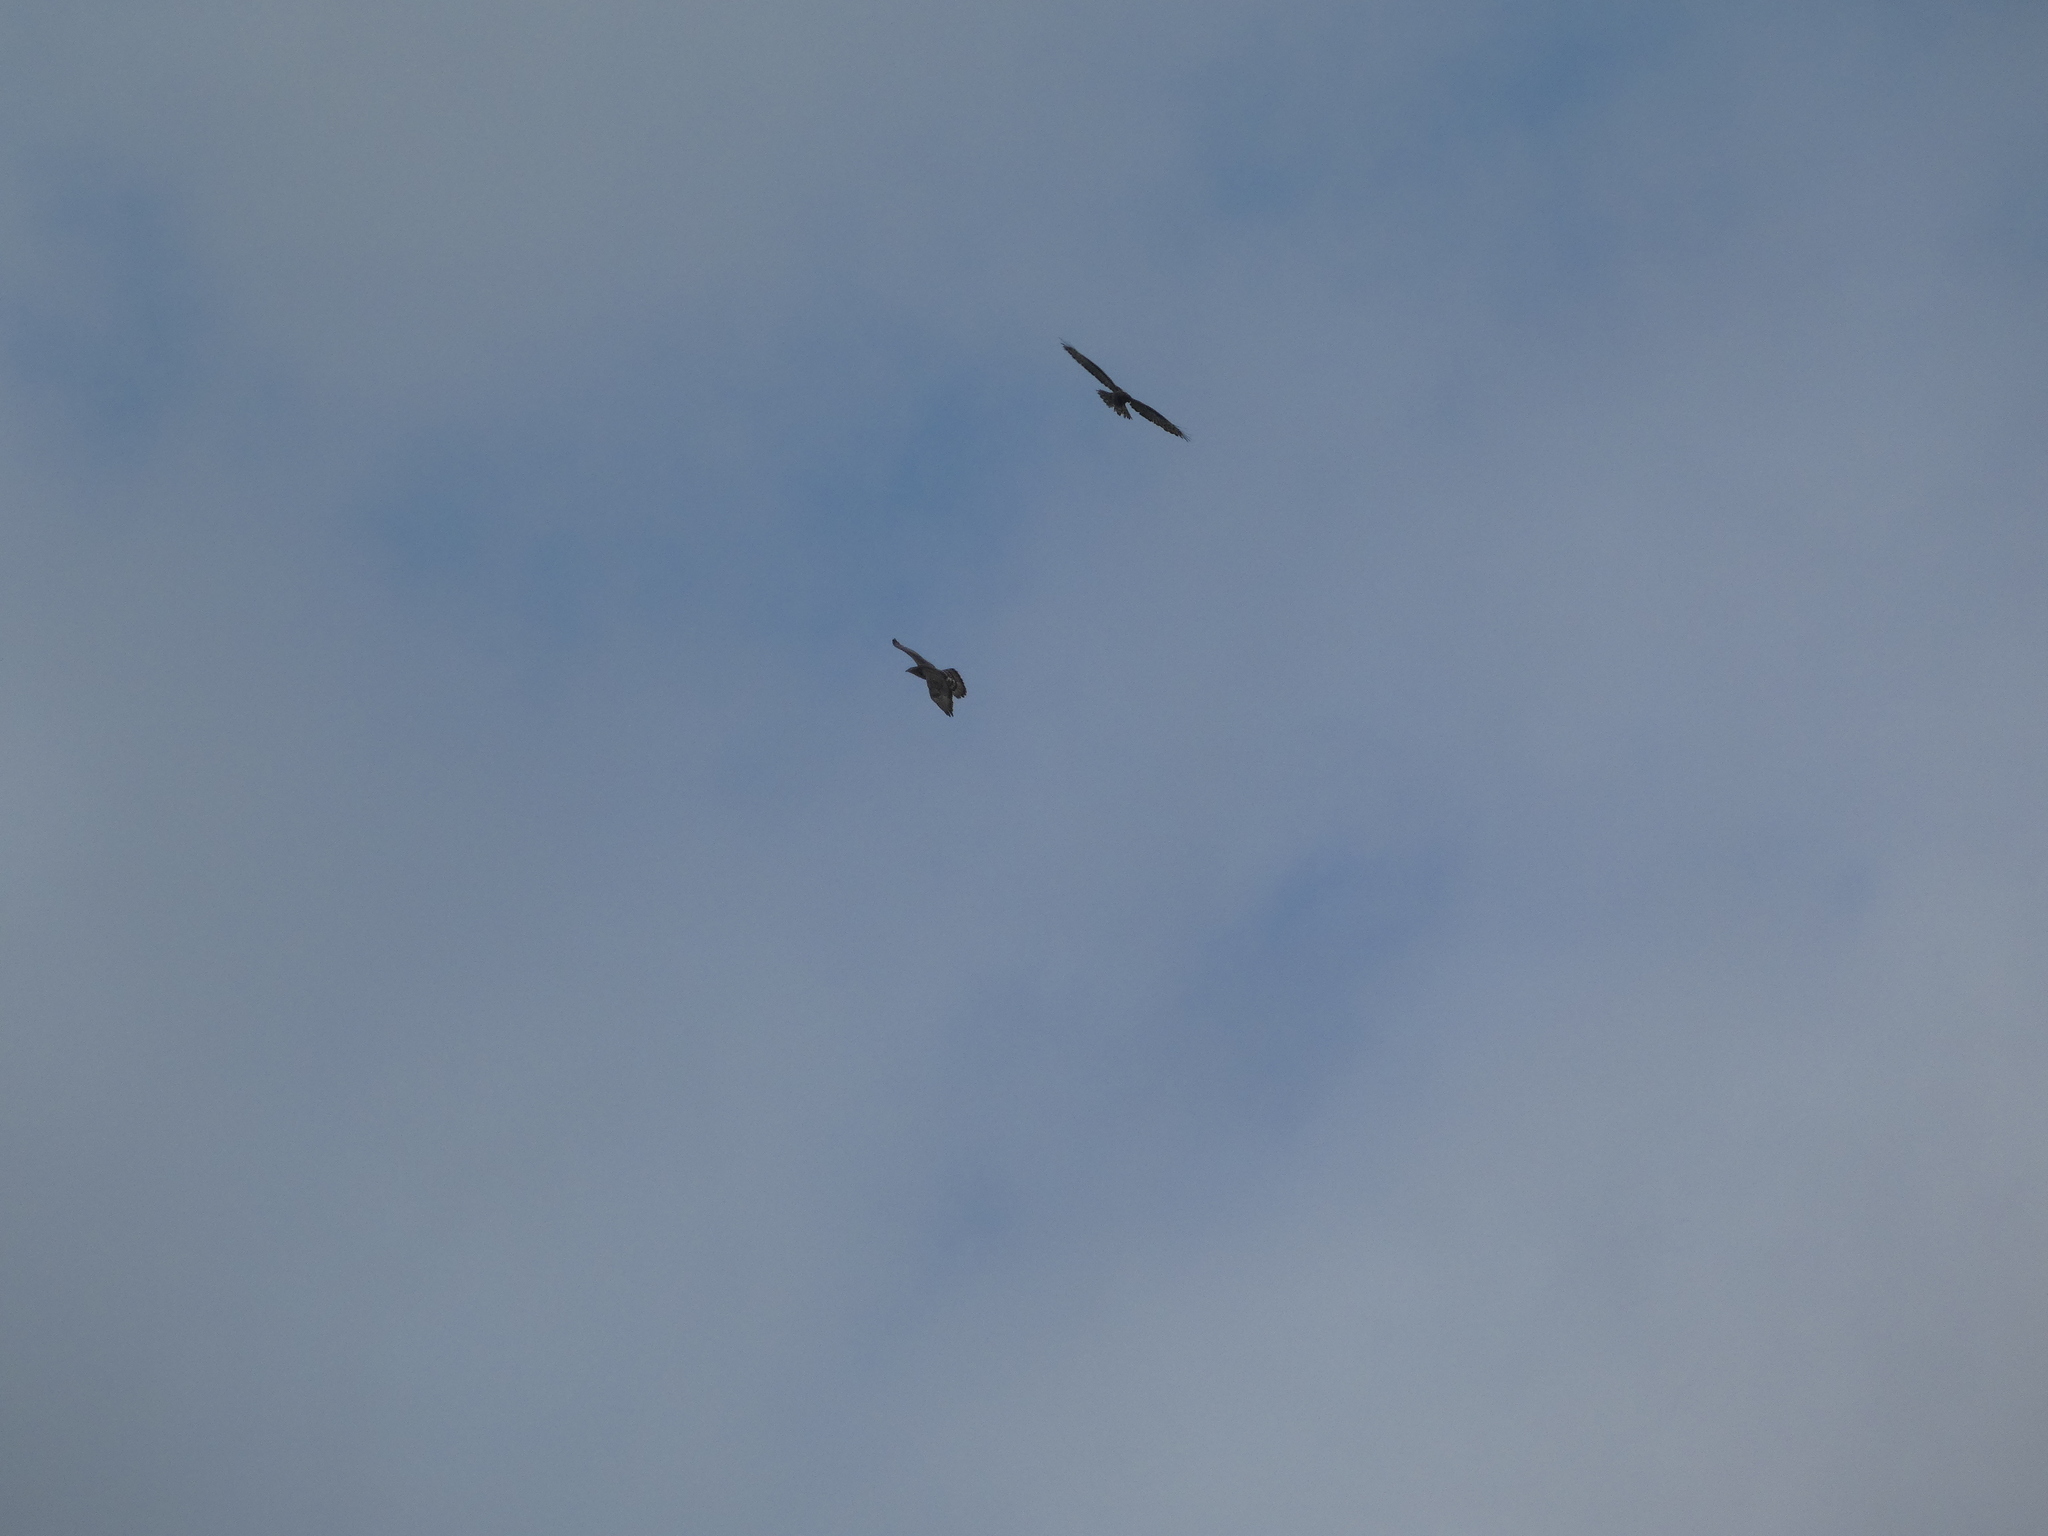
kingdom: Animalia
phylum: Chordata
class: Aves
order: Accipitriformes
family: Accipitridae
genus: Pernis
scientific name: Pernis apivorus
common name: European honey buzzard
